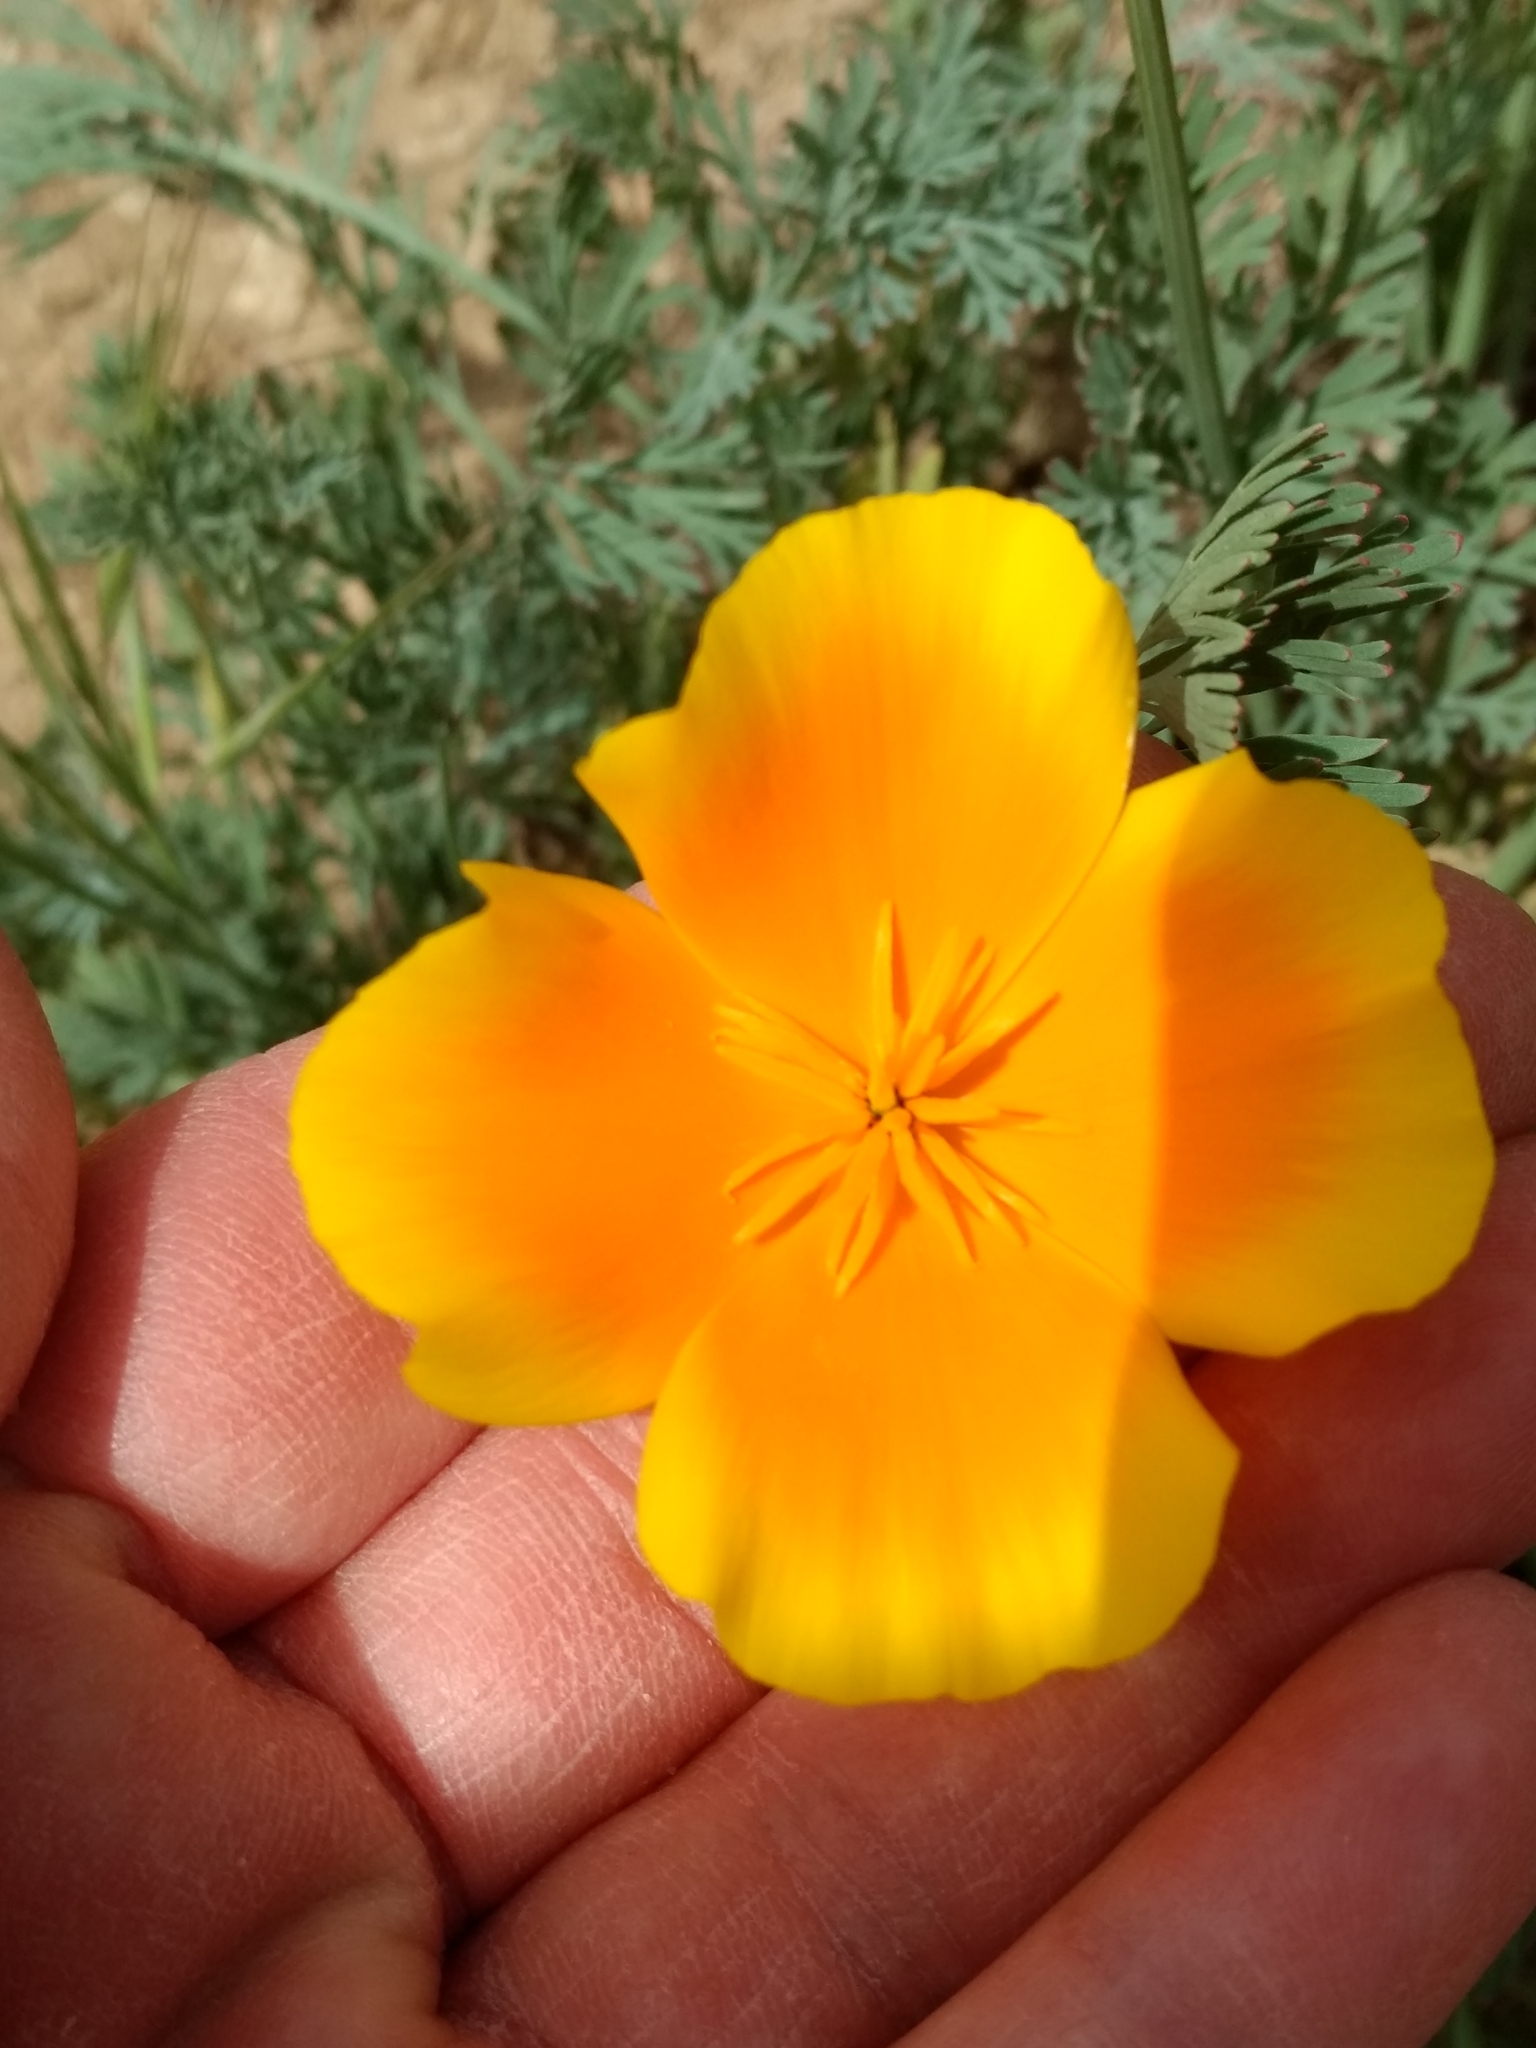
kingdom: Plantae
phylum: Tracheophyta
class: Magnoliopsida
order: Ranunculales
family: Papaveraceae
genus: Eschscholzia
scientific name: Eschscholzia californica
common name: California poppy
